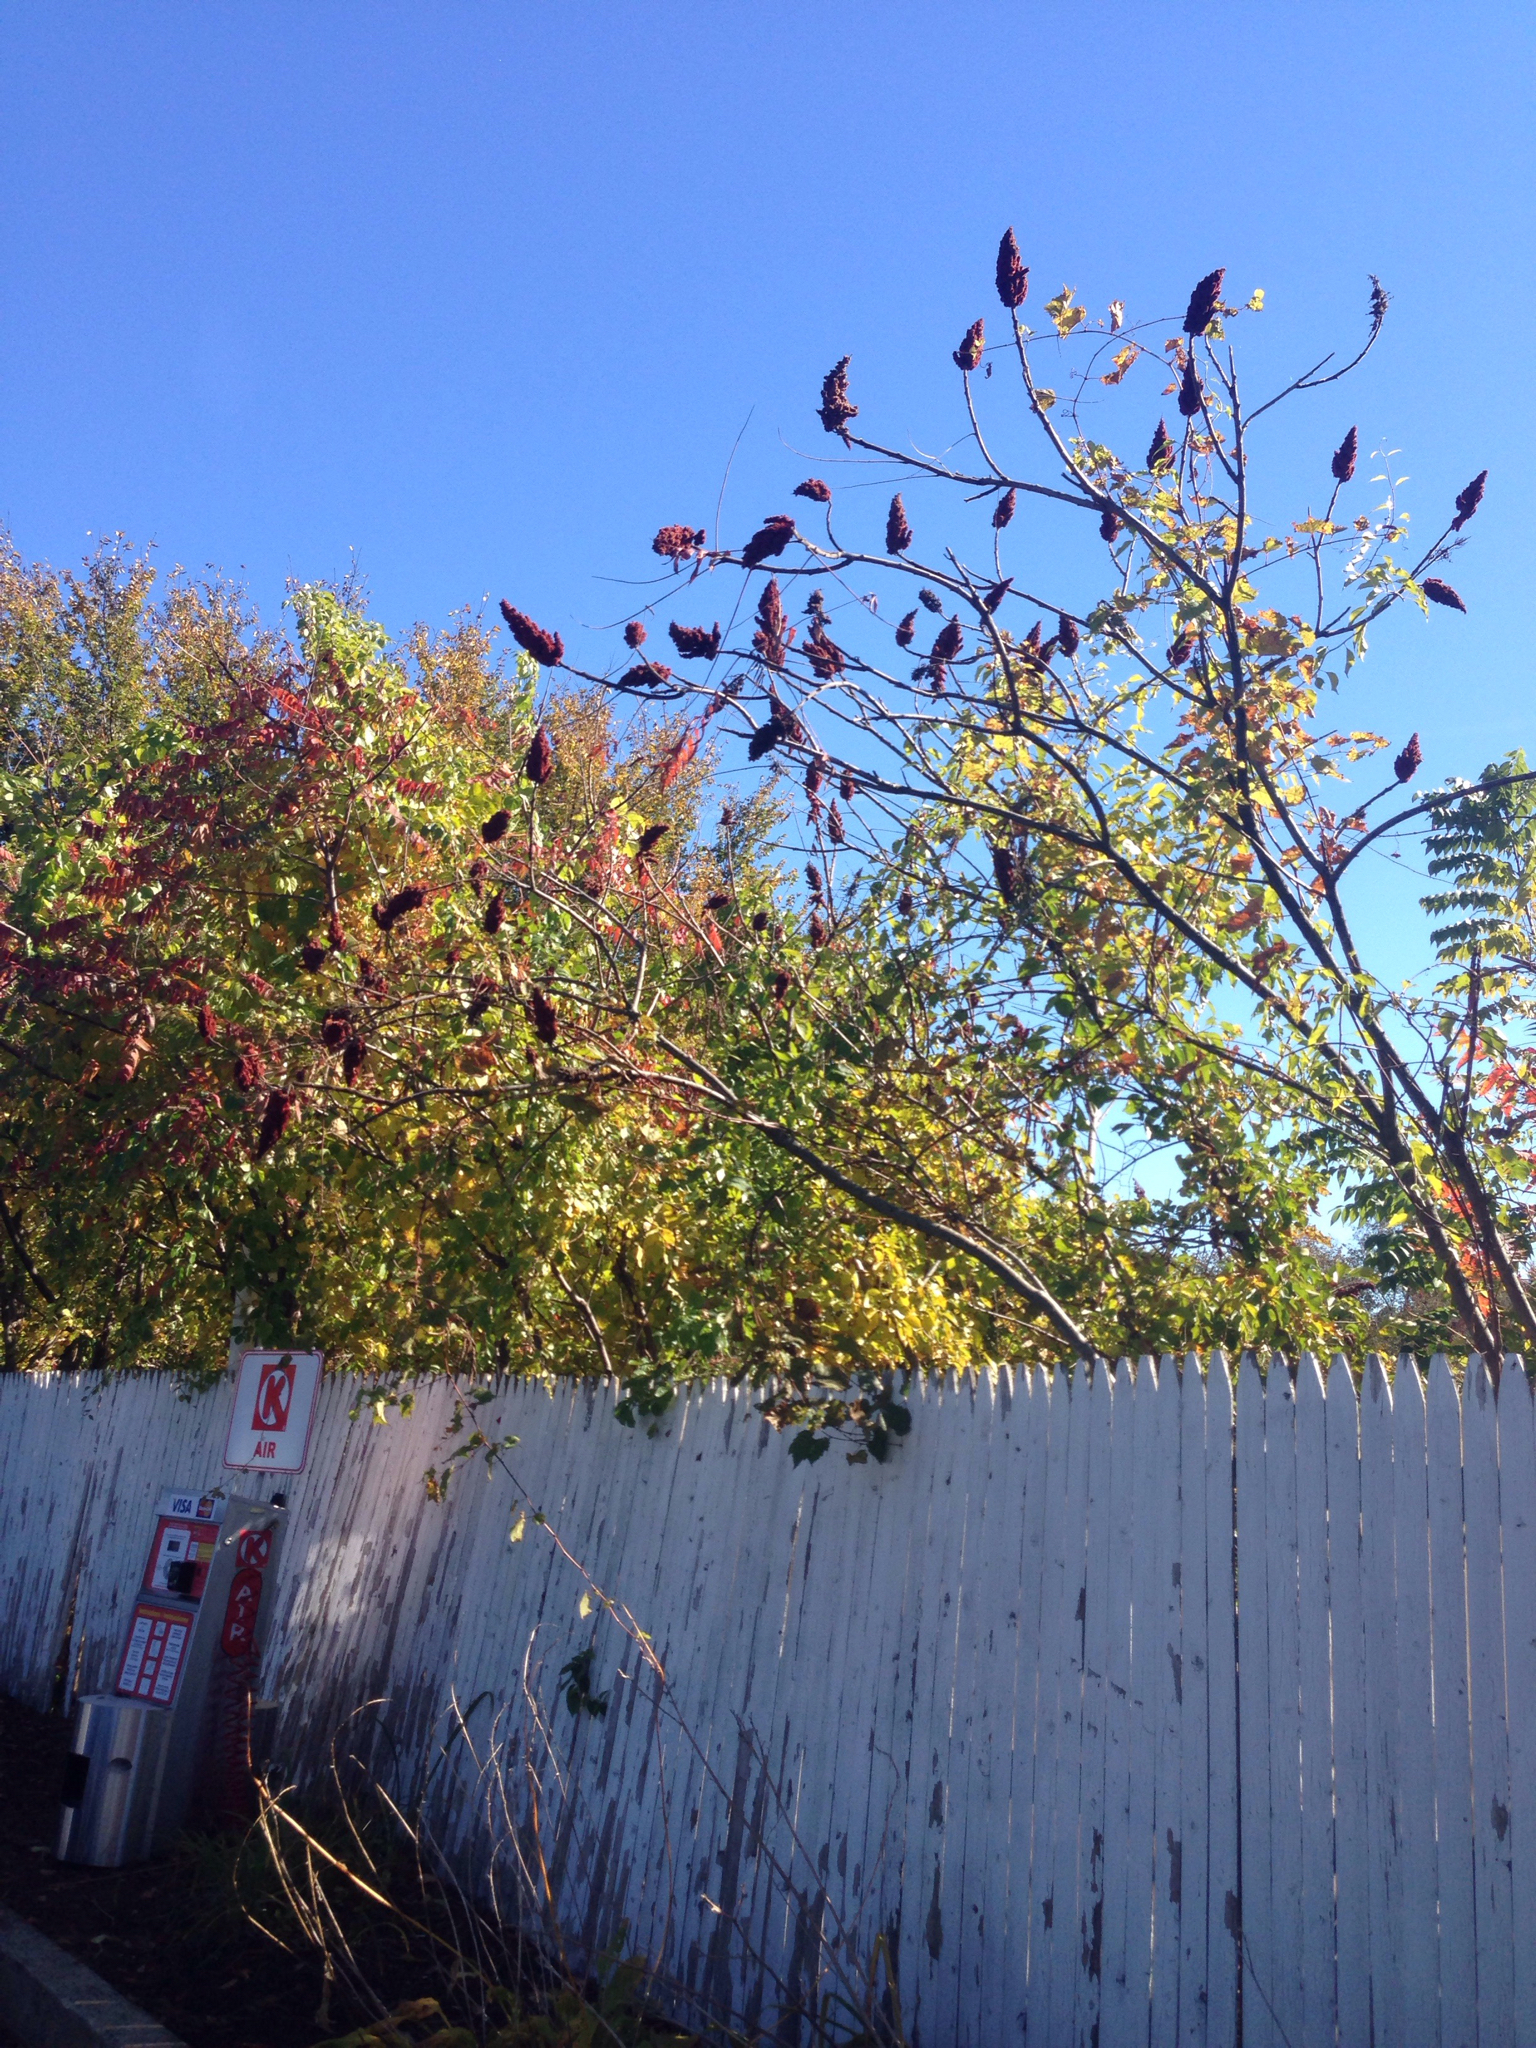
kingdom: Plantae
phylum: Tracheophyta
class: Magnoliopsida
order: Sapindales
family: Anacardiaceae
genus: Rhus
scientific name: Rhus typhina
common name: Staghorn sumac
